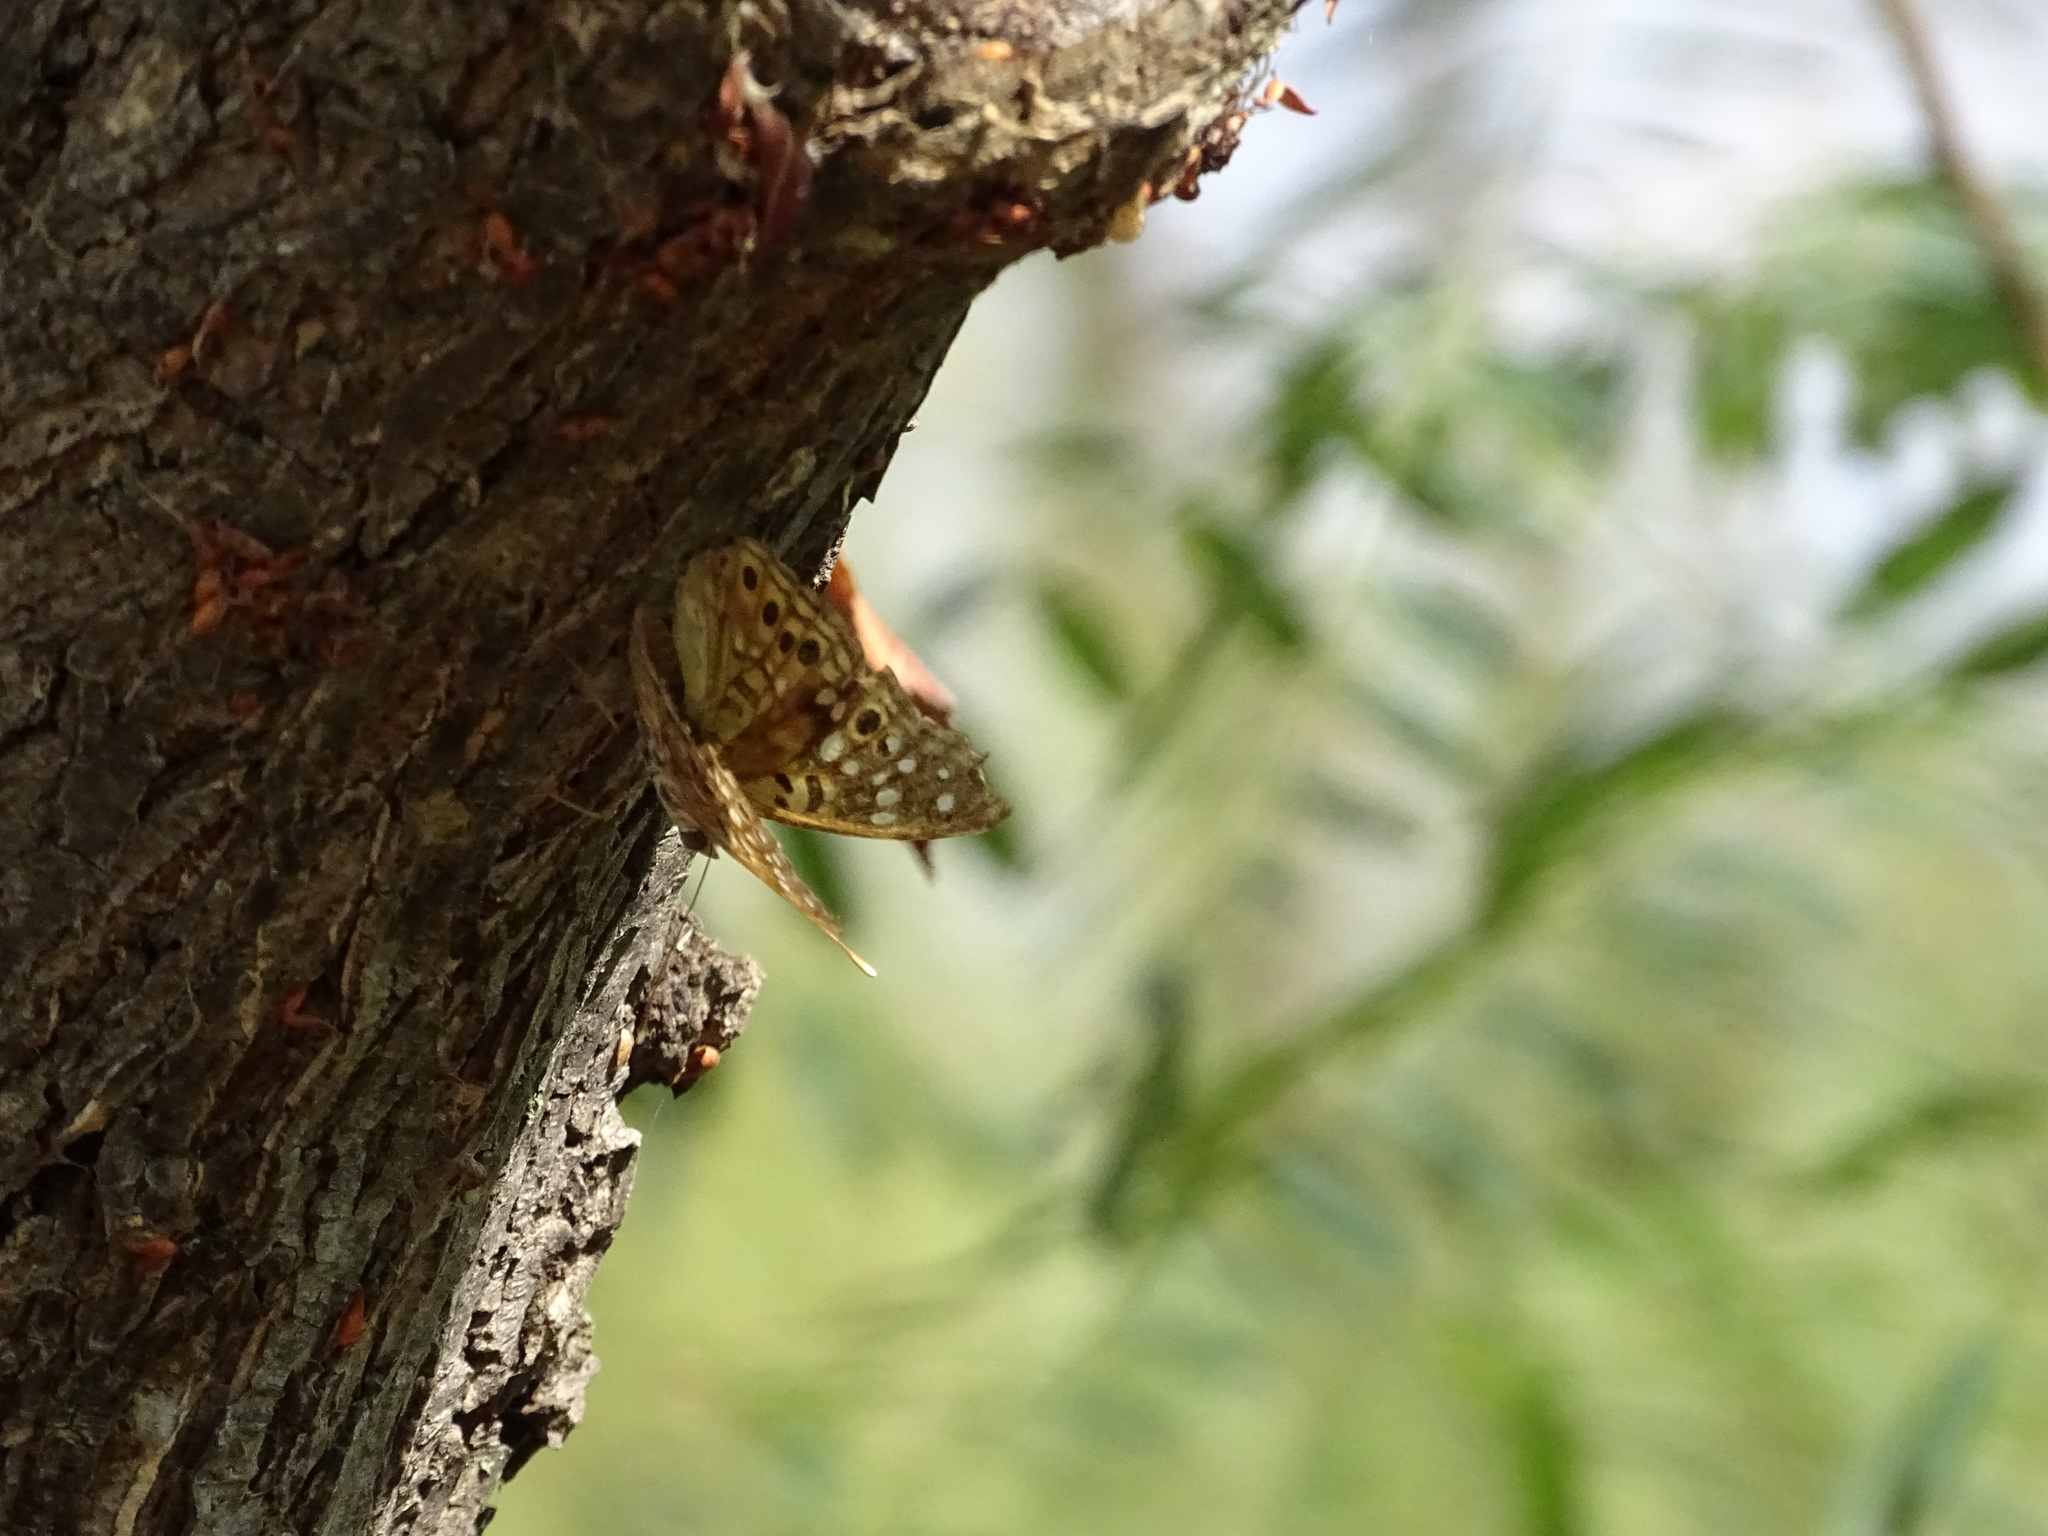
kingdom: Animalia
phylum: Arthropoda
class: Insecta
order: Lepidoptera
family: Nymphalidae
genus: Asterocampa
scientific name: Asterocampa celtis
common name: Hackberry emperor
